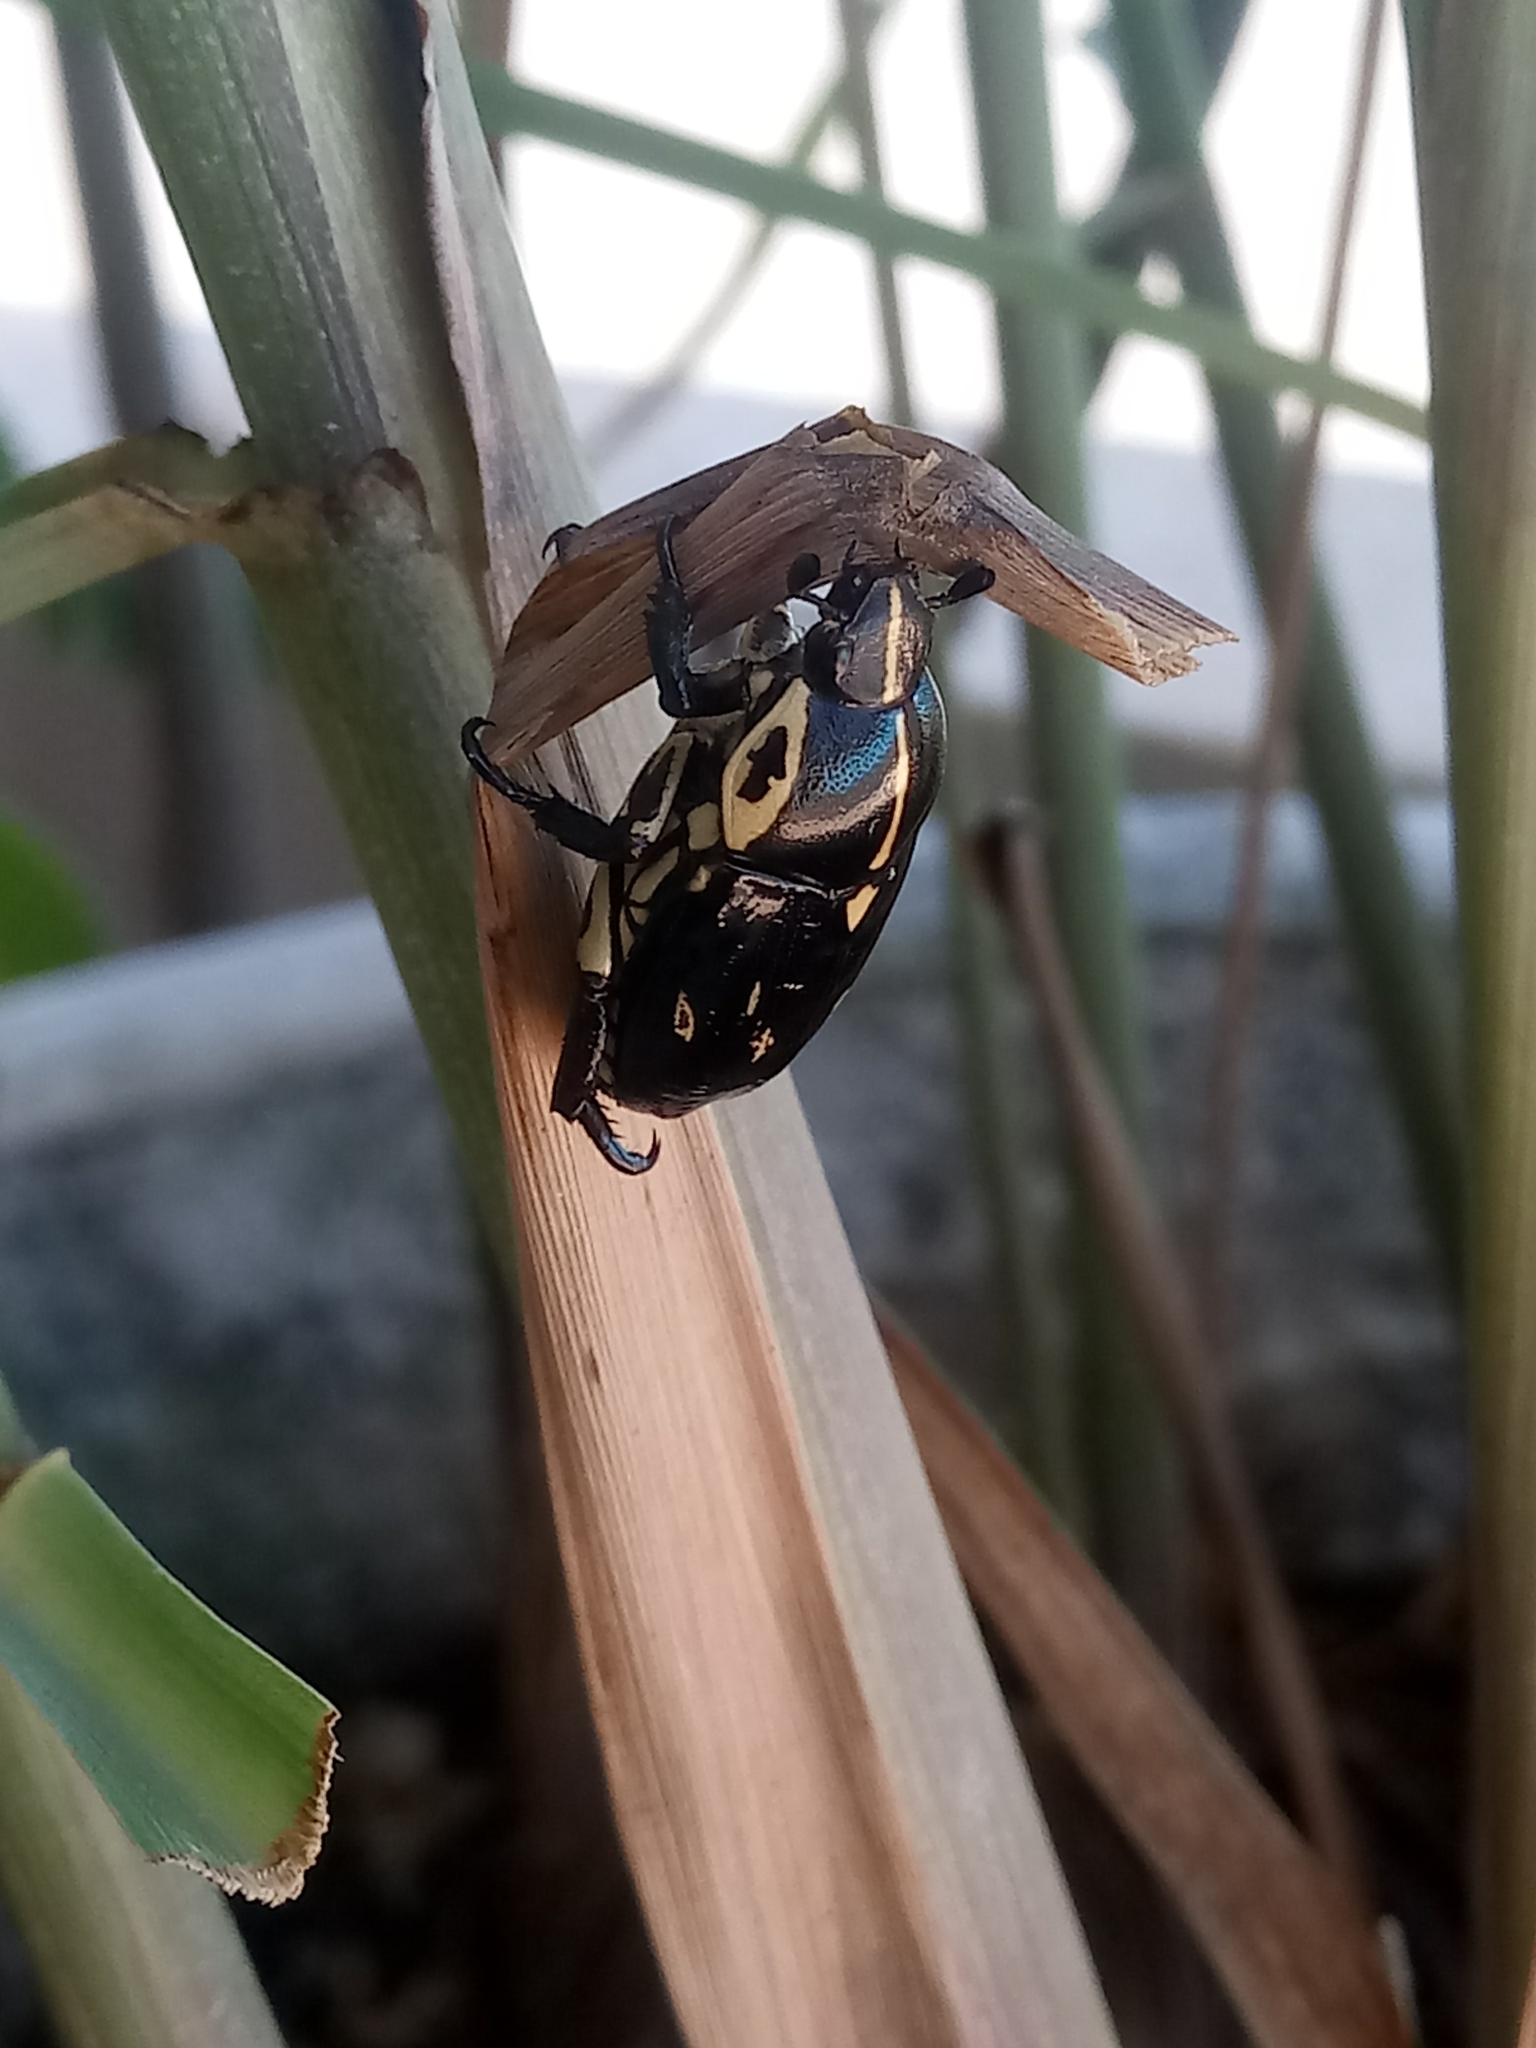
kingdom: Animalia
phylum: Arthropoda
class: Insecta
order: Coleoptera
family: Scarabaeidae
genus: Rutela
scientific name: Rutela lineola
